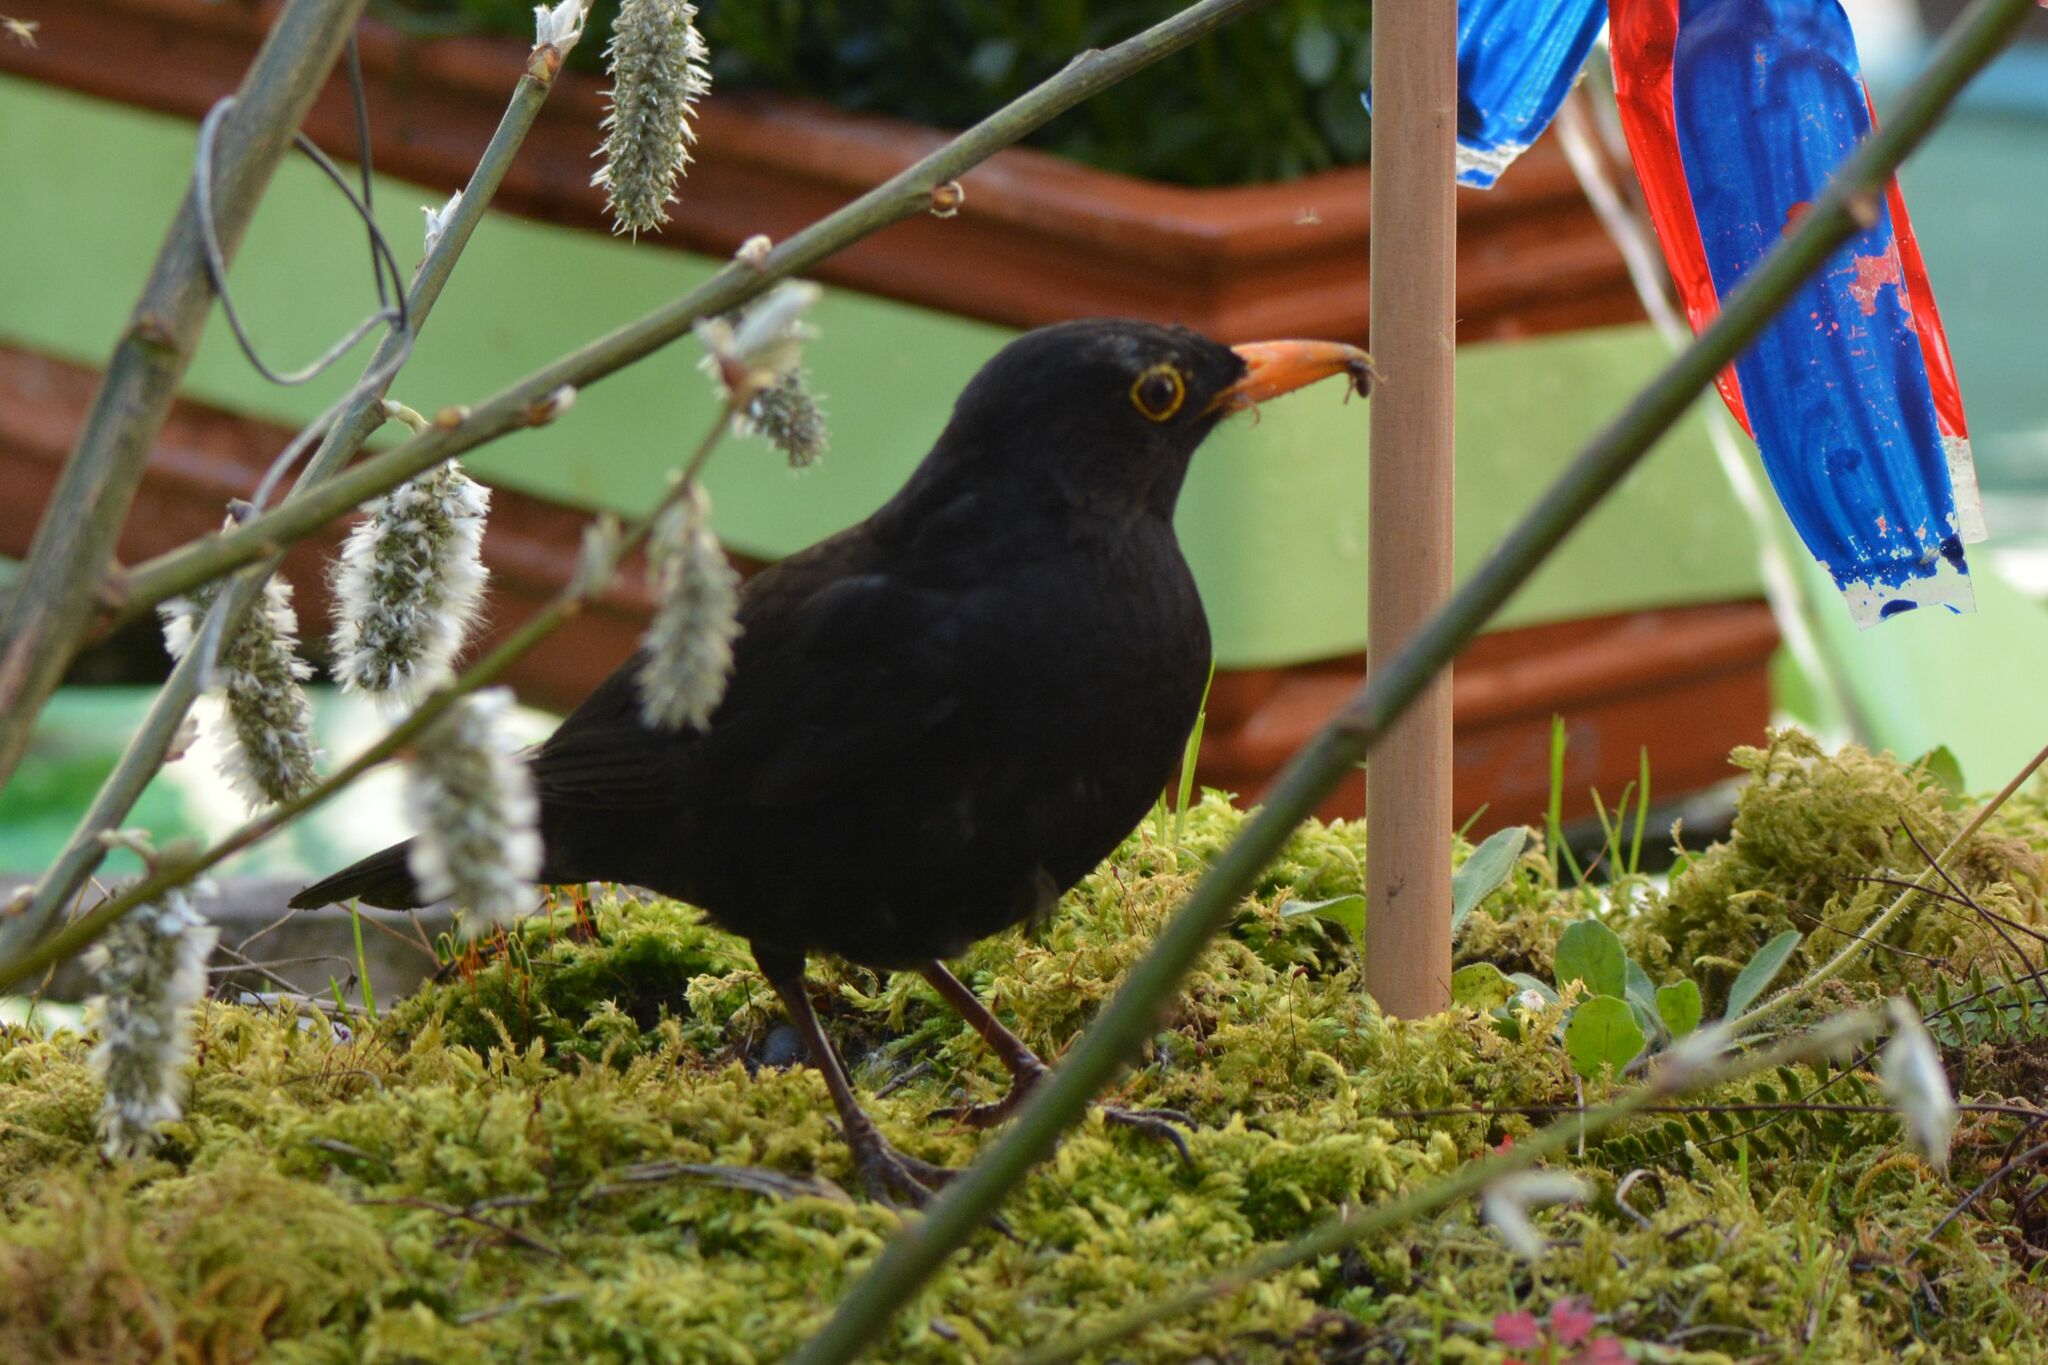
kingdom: Animalia
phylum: Chordata
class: Aves
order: Passeriformes
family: Turdidae
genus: Turdus
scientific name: Turdus merula
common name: Common blackbird
